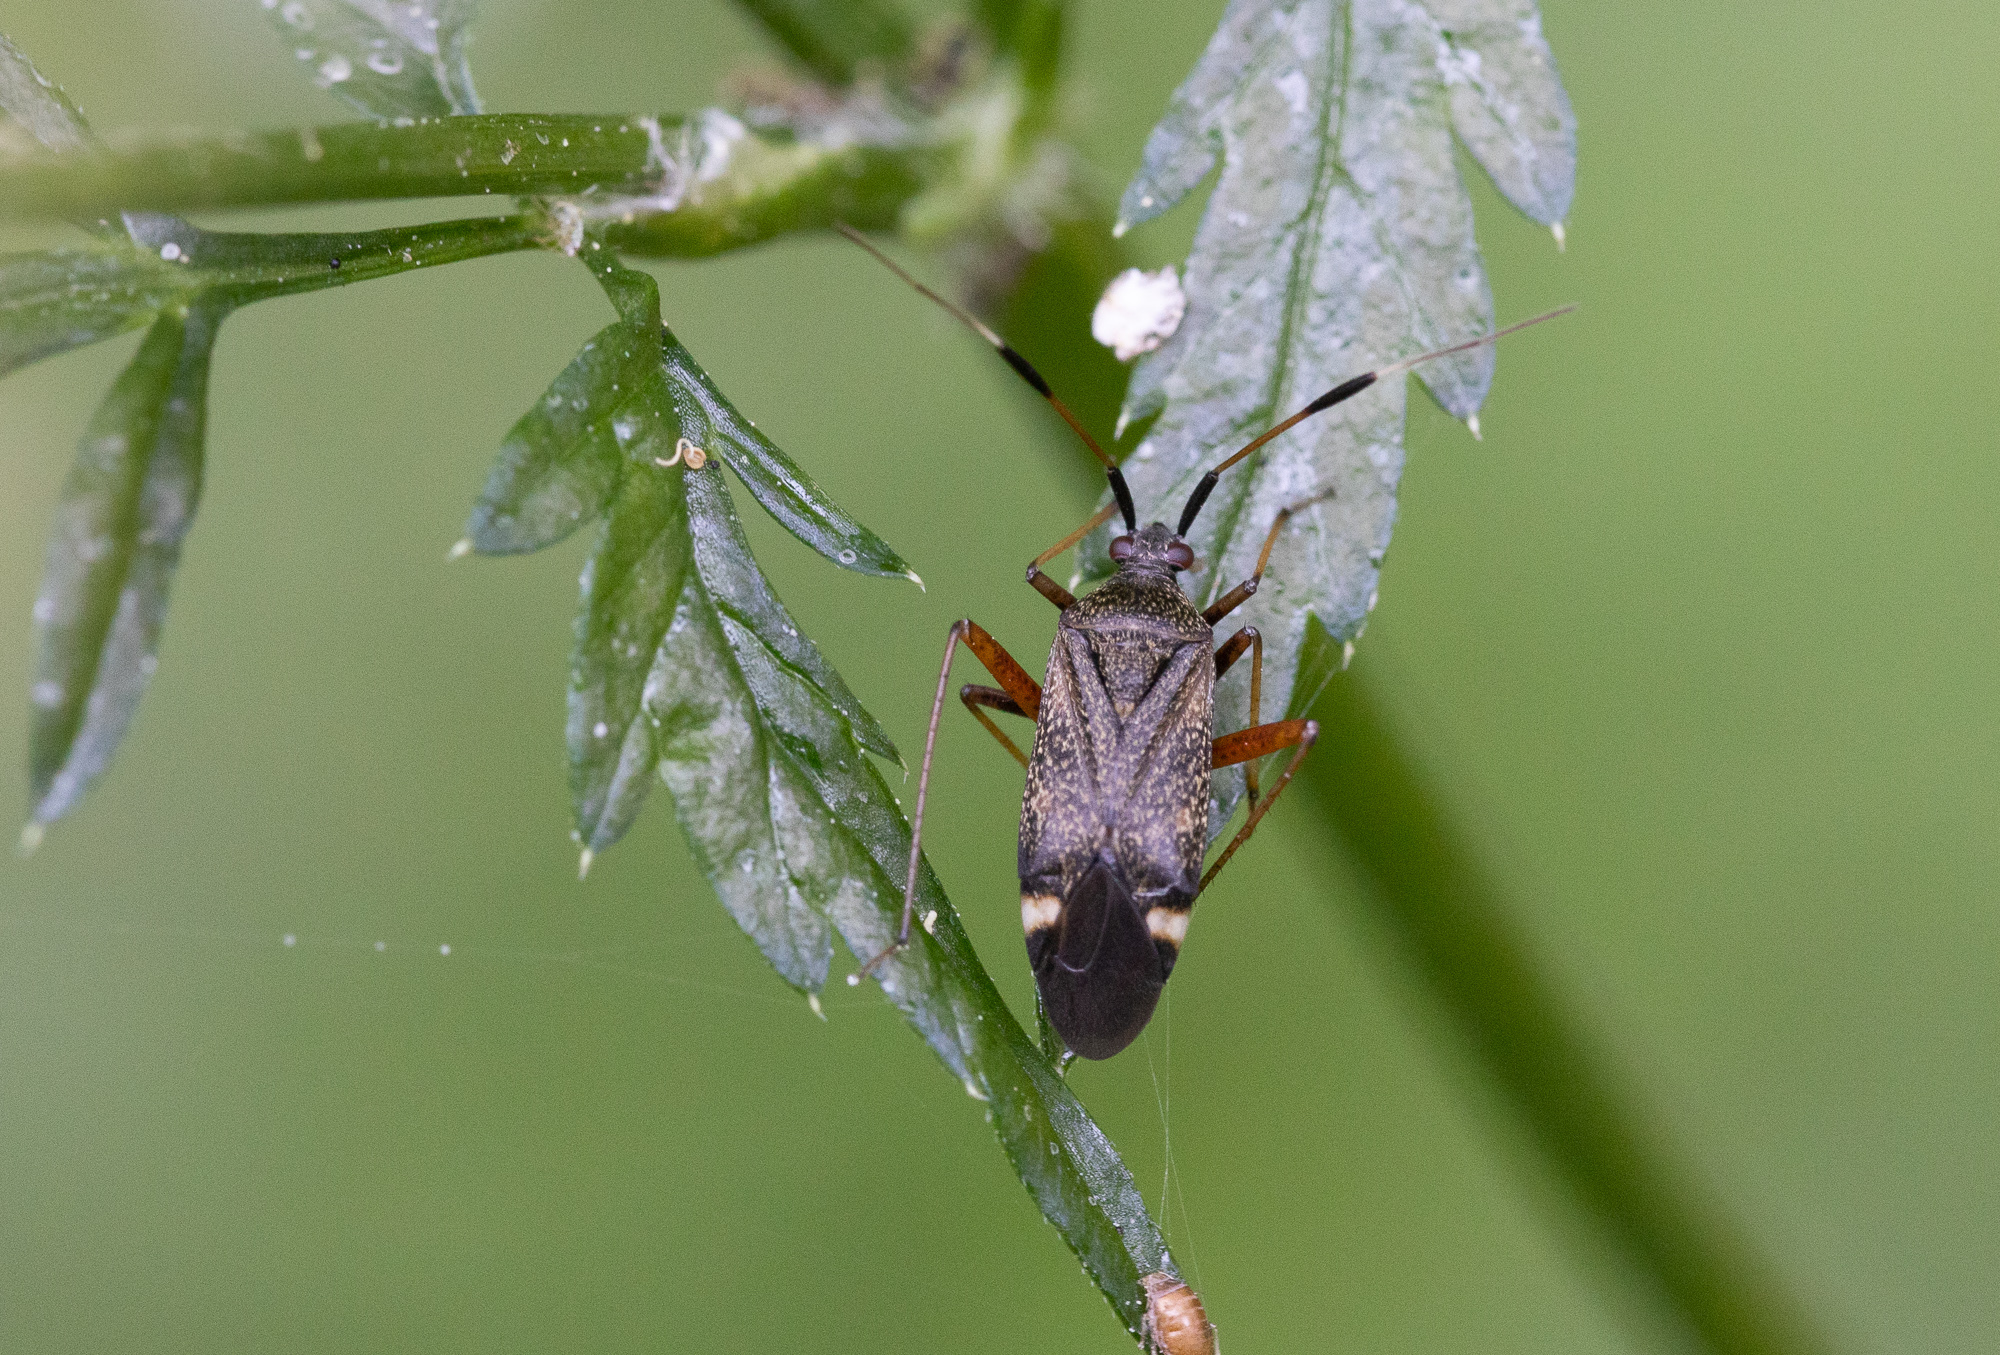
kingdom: Animalia
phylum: Arthropoda
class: Insecta
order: Hemiptera
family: Miridae
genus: Closterotomus
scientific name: Closterotomus biclavatus
